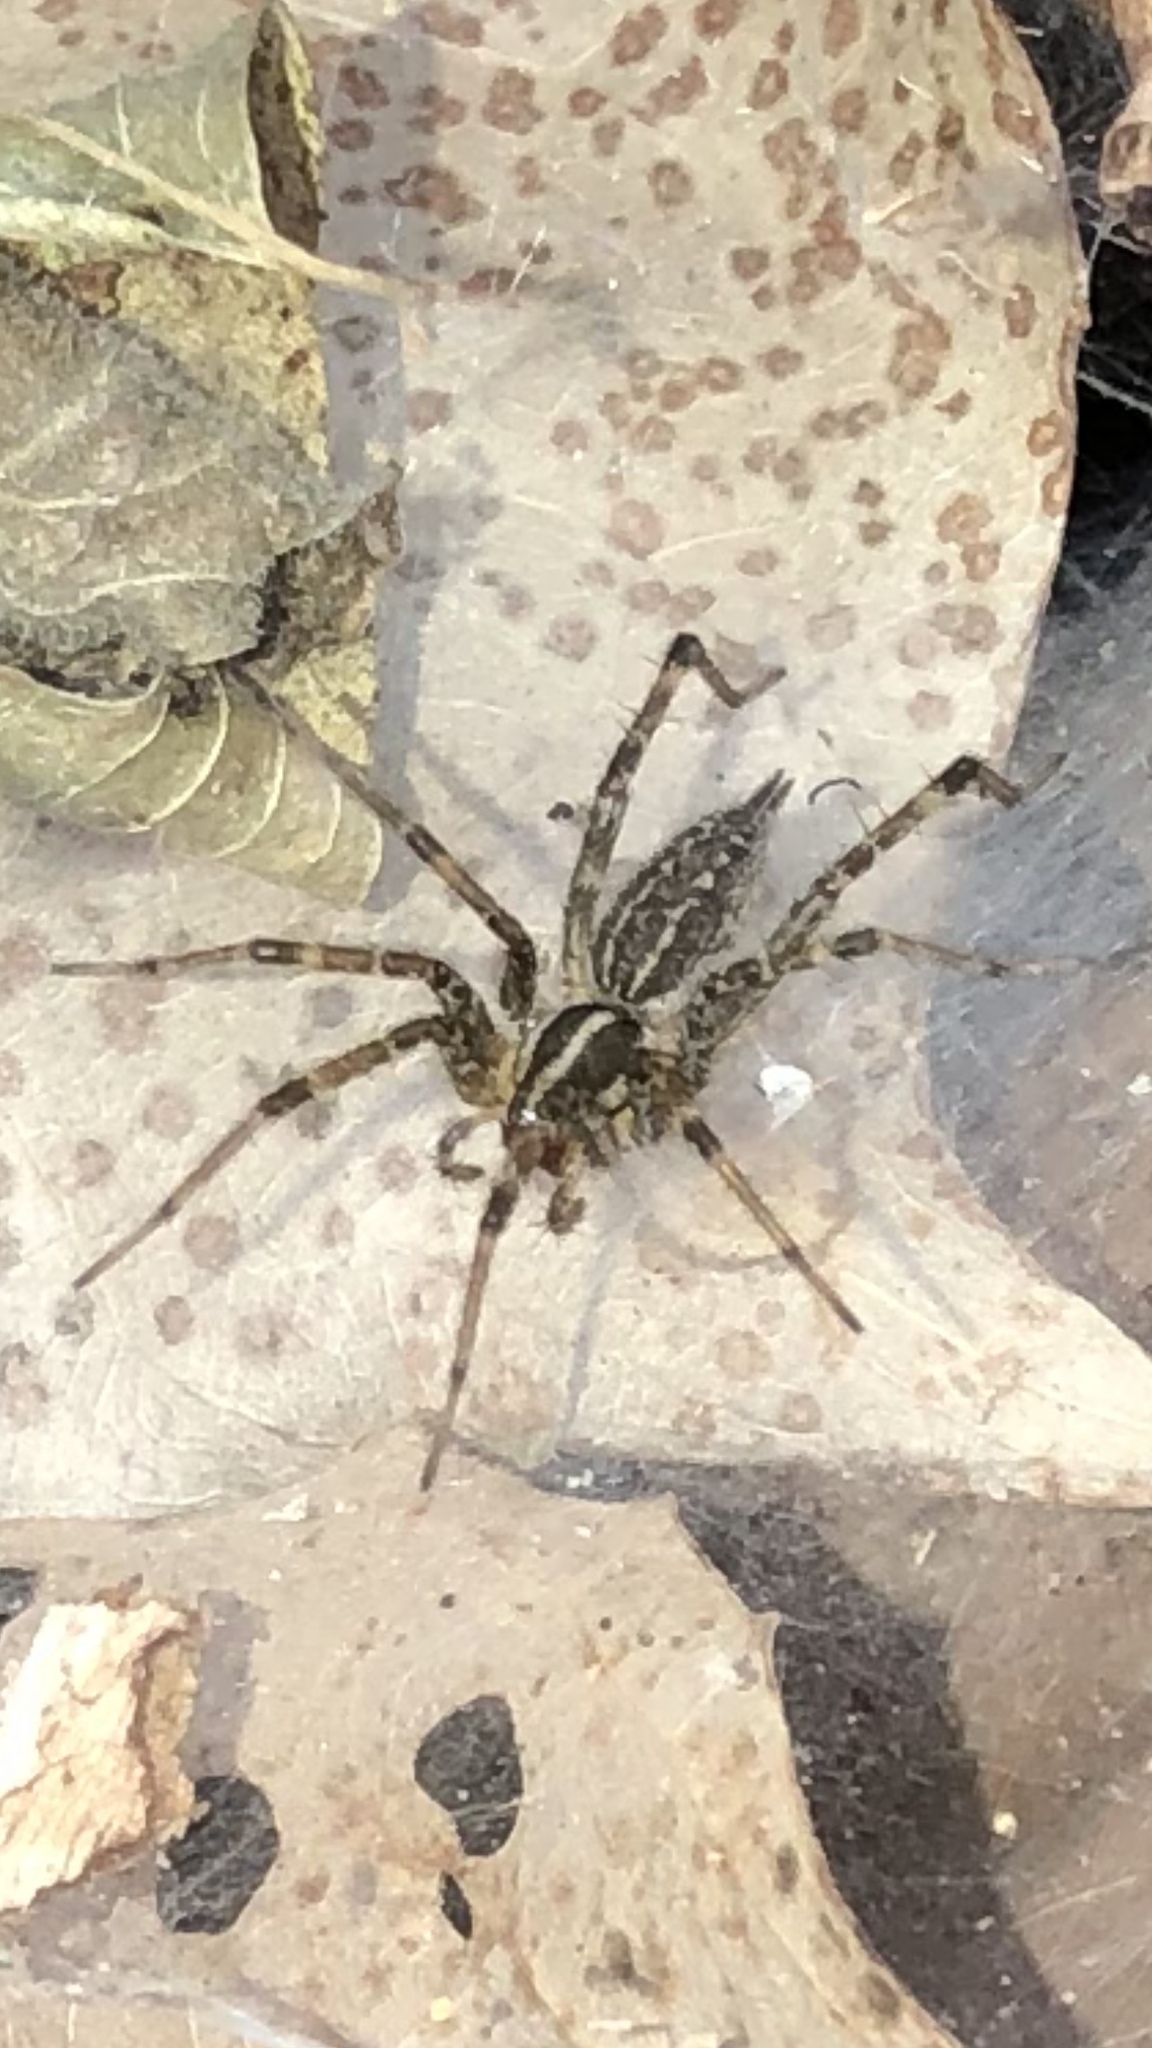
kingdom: Animalia
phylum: Arthropoda
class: Arachnida
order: Araneae
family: Agelenidae
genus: Agelenopsis
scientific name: Agelenopsis
